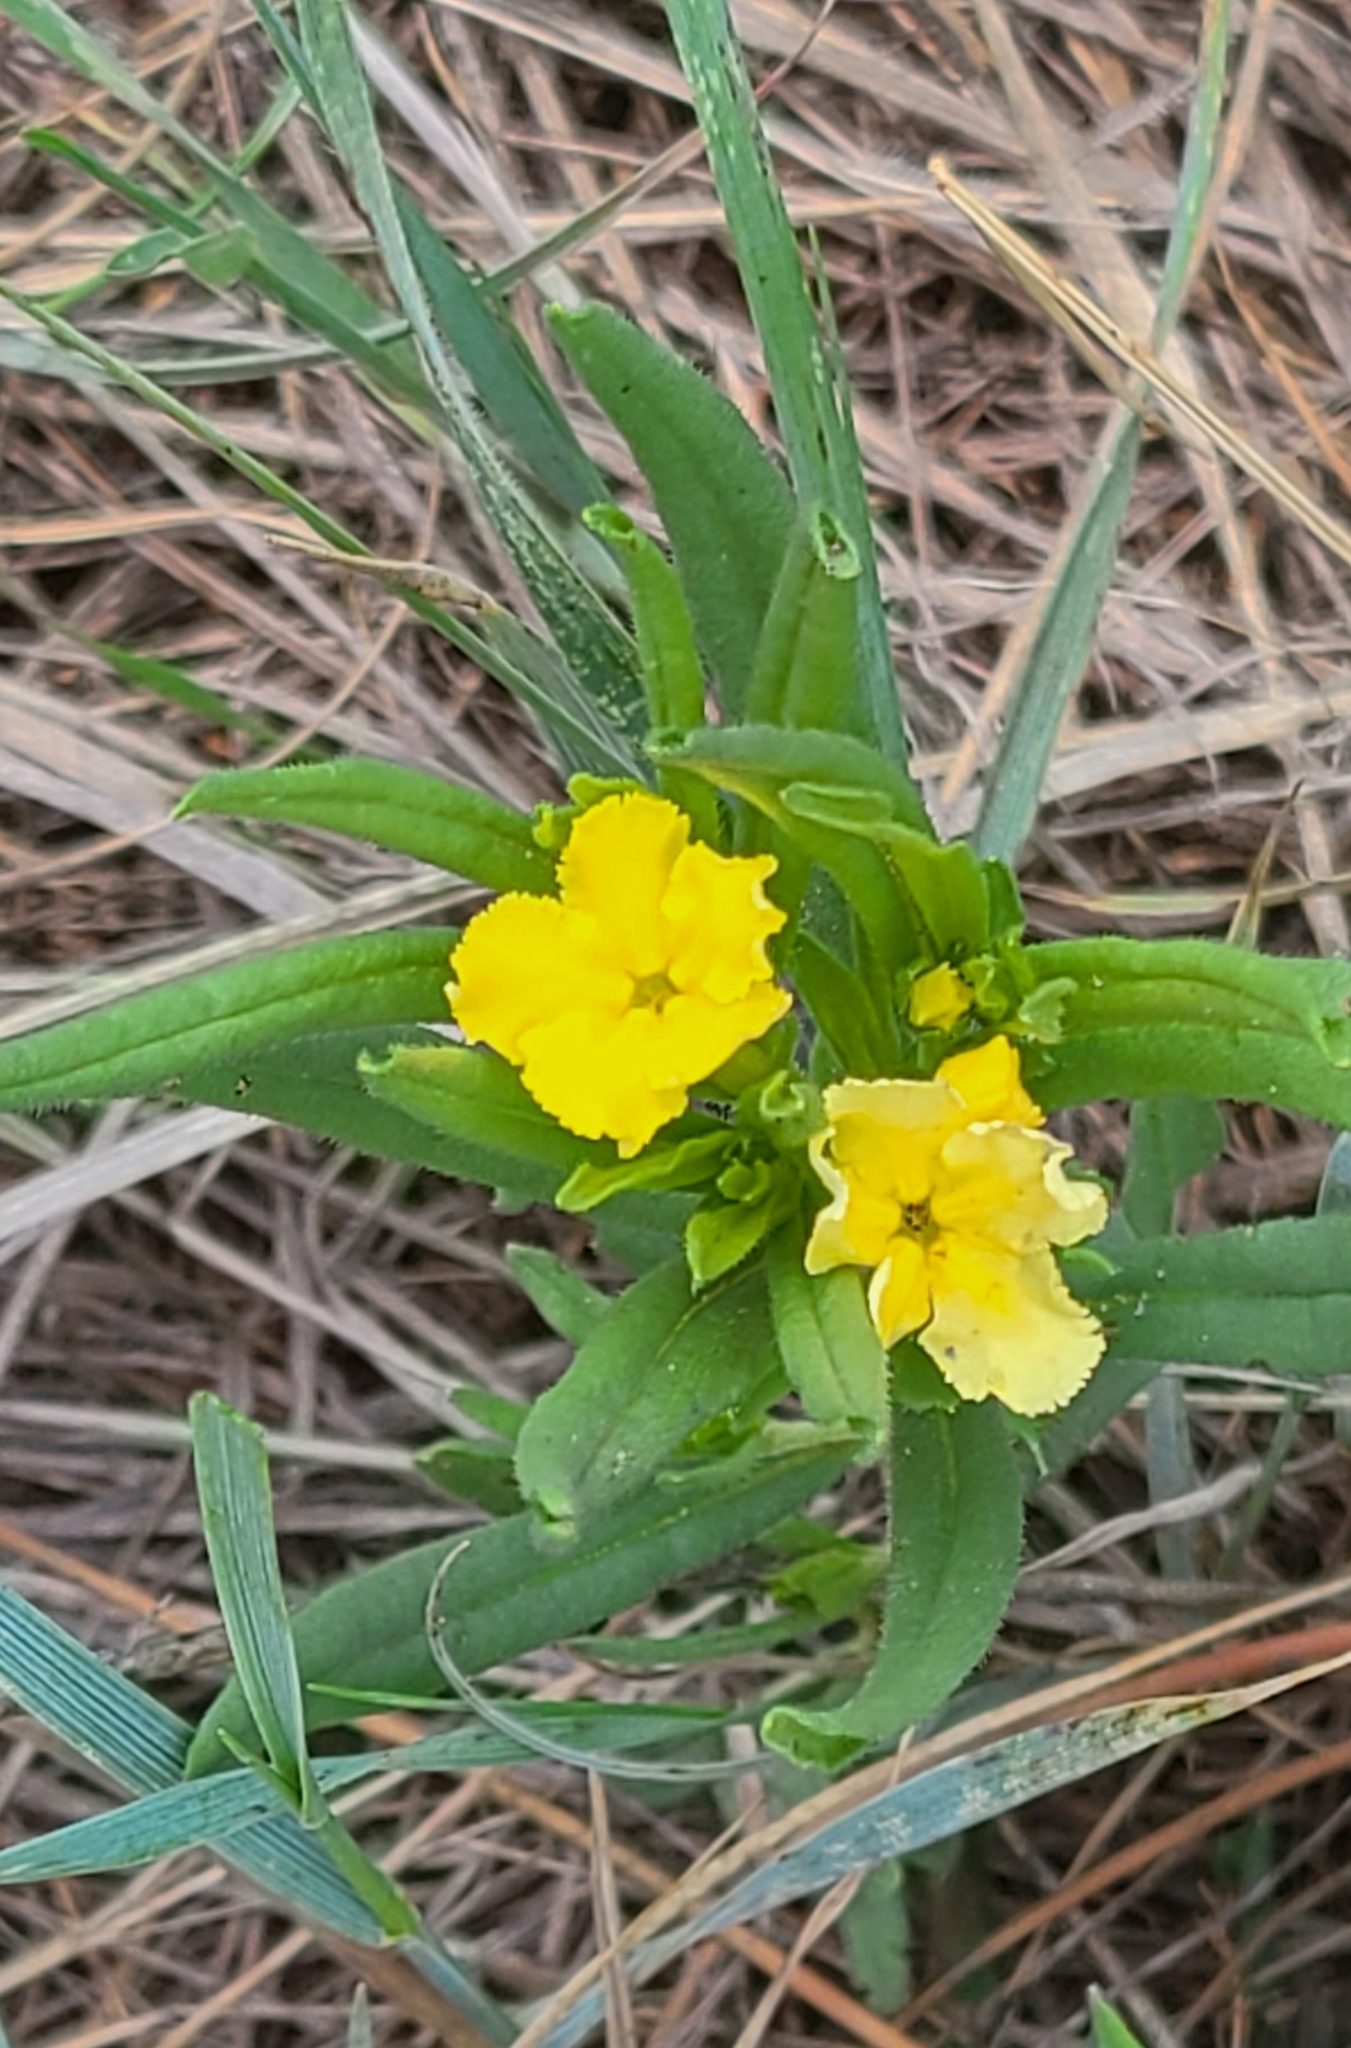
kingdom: Plantae
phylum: Tracheophyta
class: Magnoliopsida
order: Boraginales
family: Boraginaceae
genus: Lithospermum
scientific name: Lithospermum incisum
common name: Fringed gromwell
